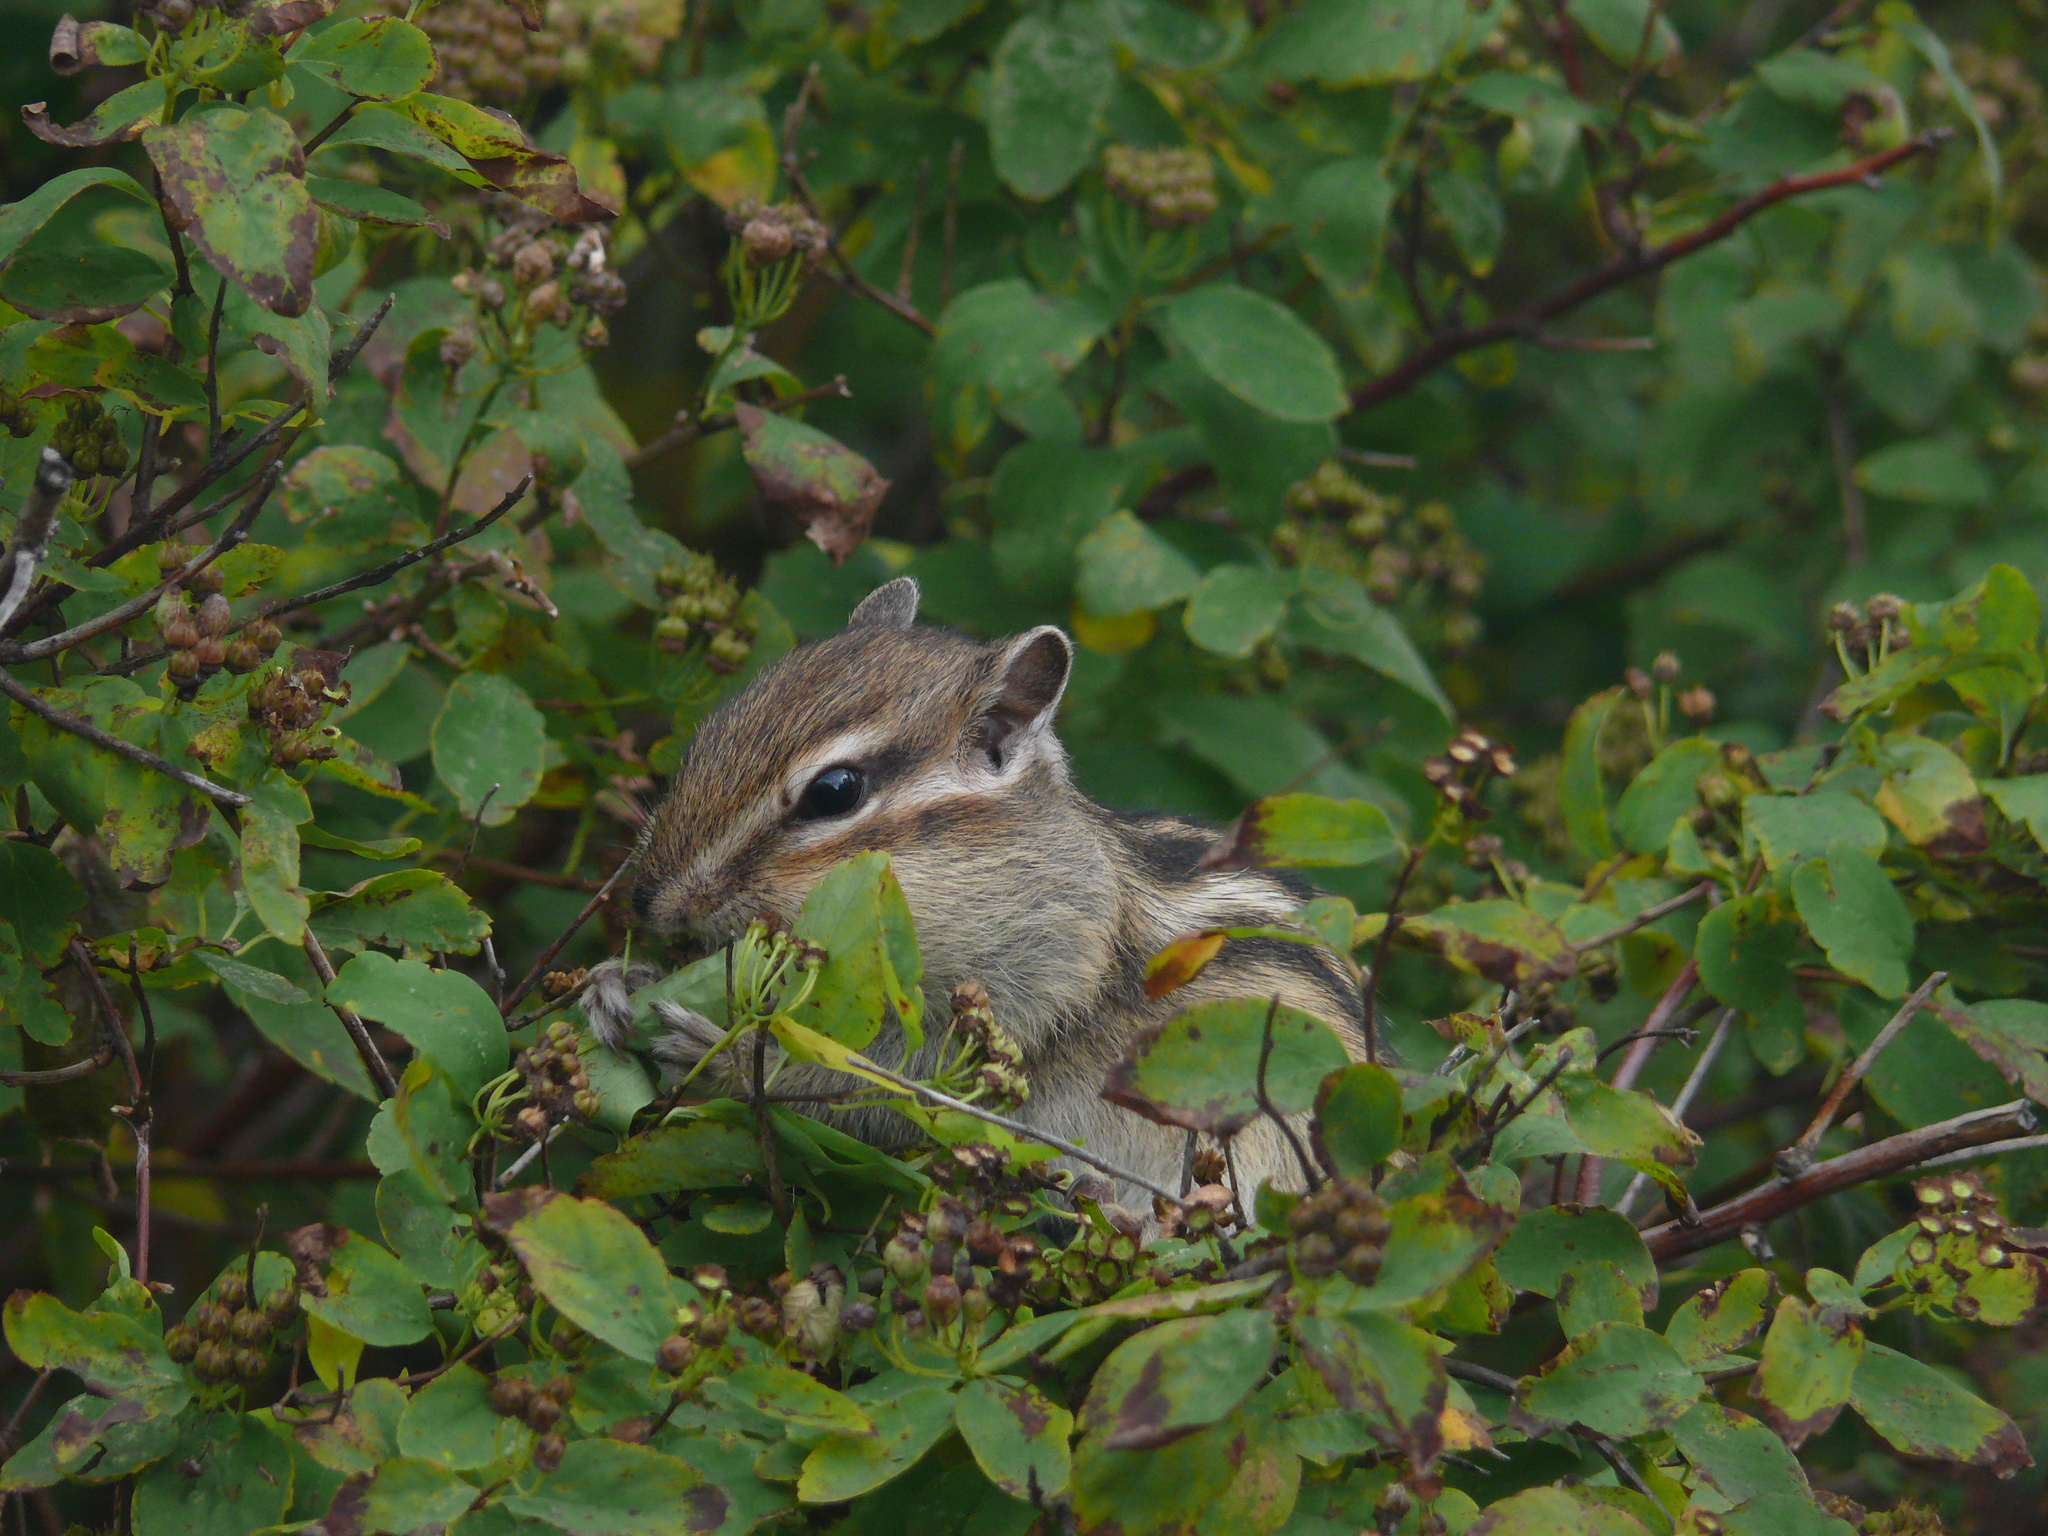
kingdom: Animalia
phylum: Chordata
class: Mammalia
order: Rodentia
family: Sciuridae
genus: Tamias
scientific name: Tamias sibiricus
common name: Siberian chipmunk
